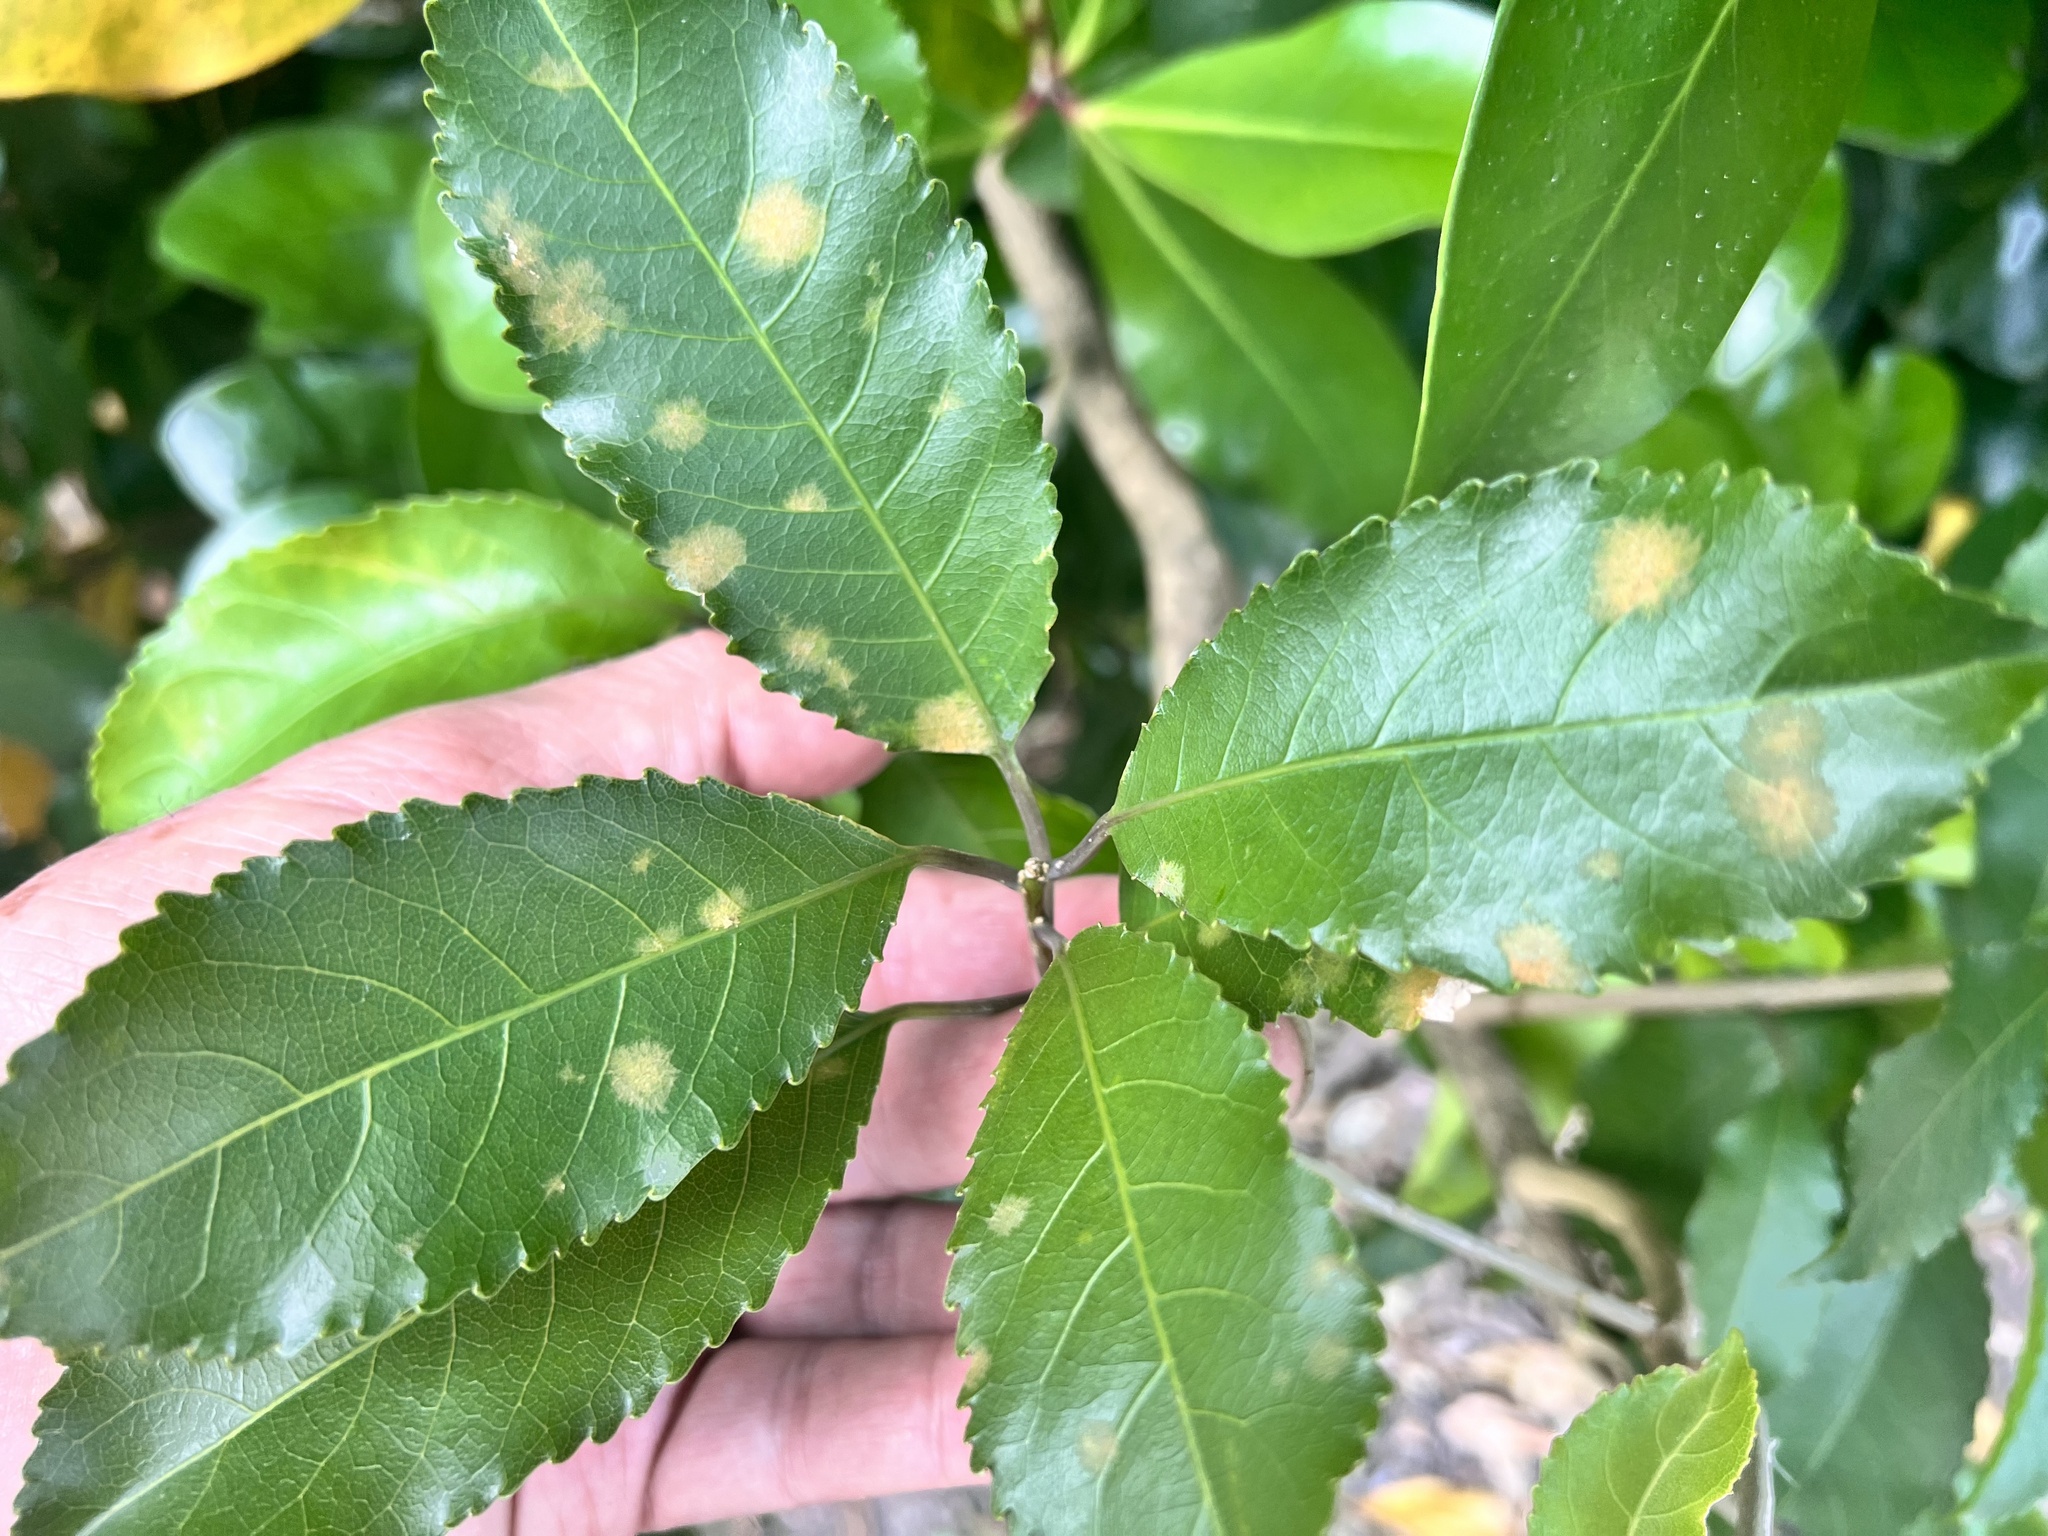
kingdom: Plantae
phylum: Tracheophyta
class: Magnoliopsida
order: Malpighiales
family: Violaceae
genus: Melicytus
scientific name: Melicytus ramiflorus
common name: Mahoe
